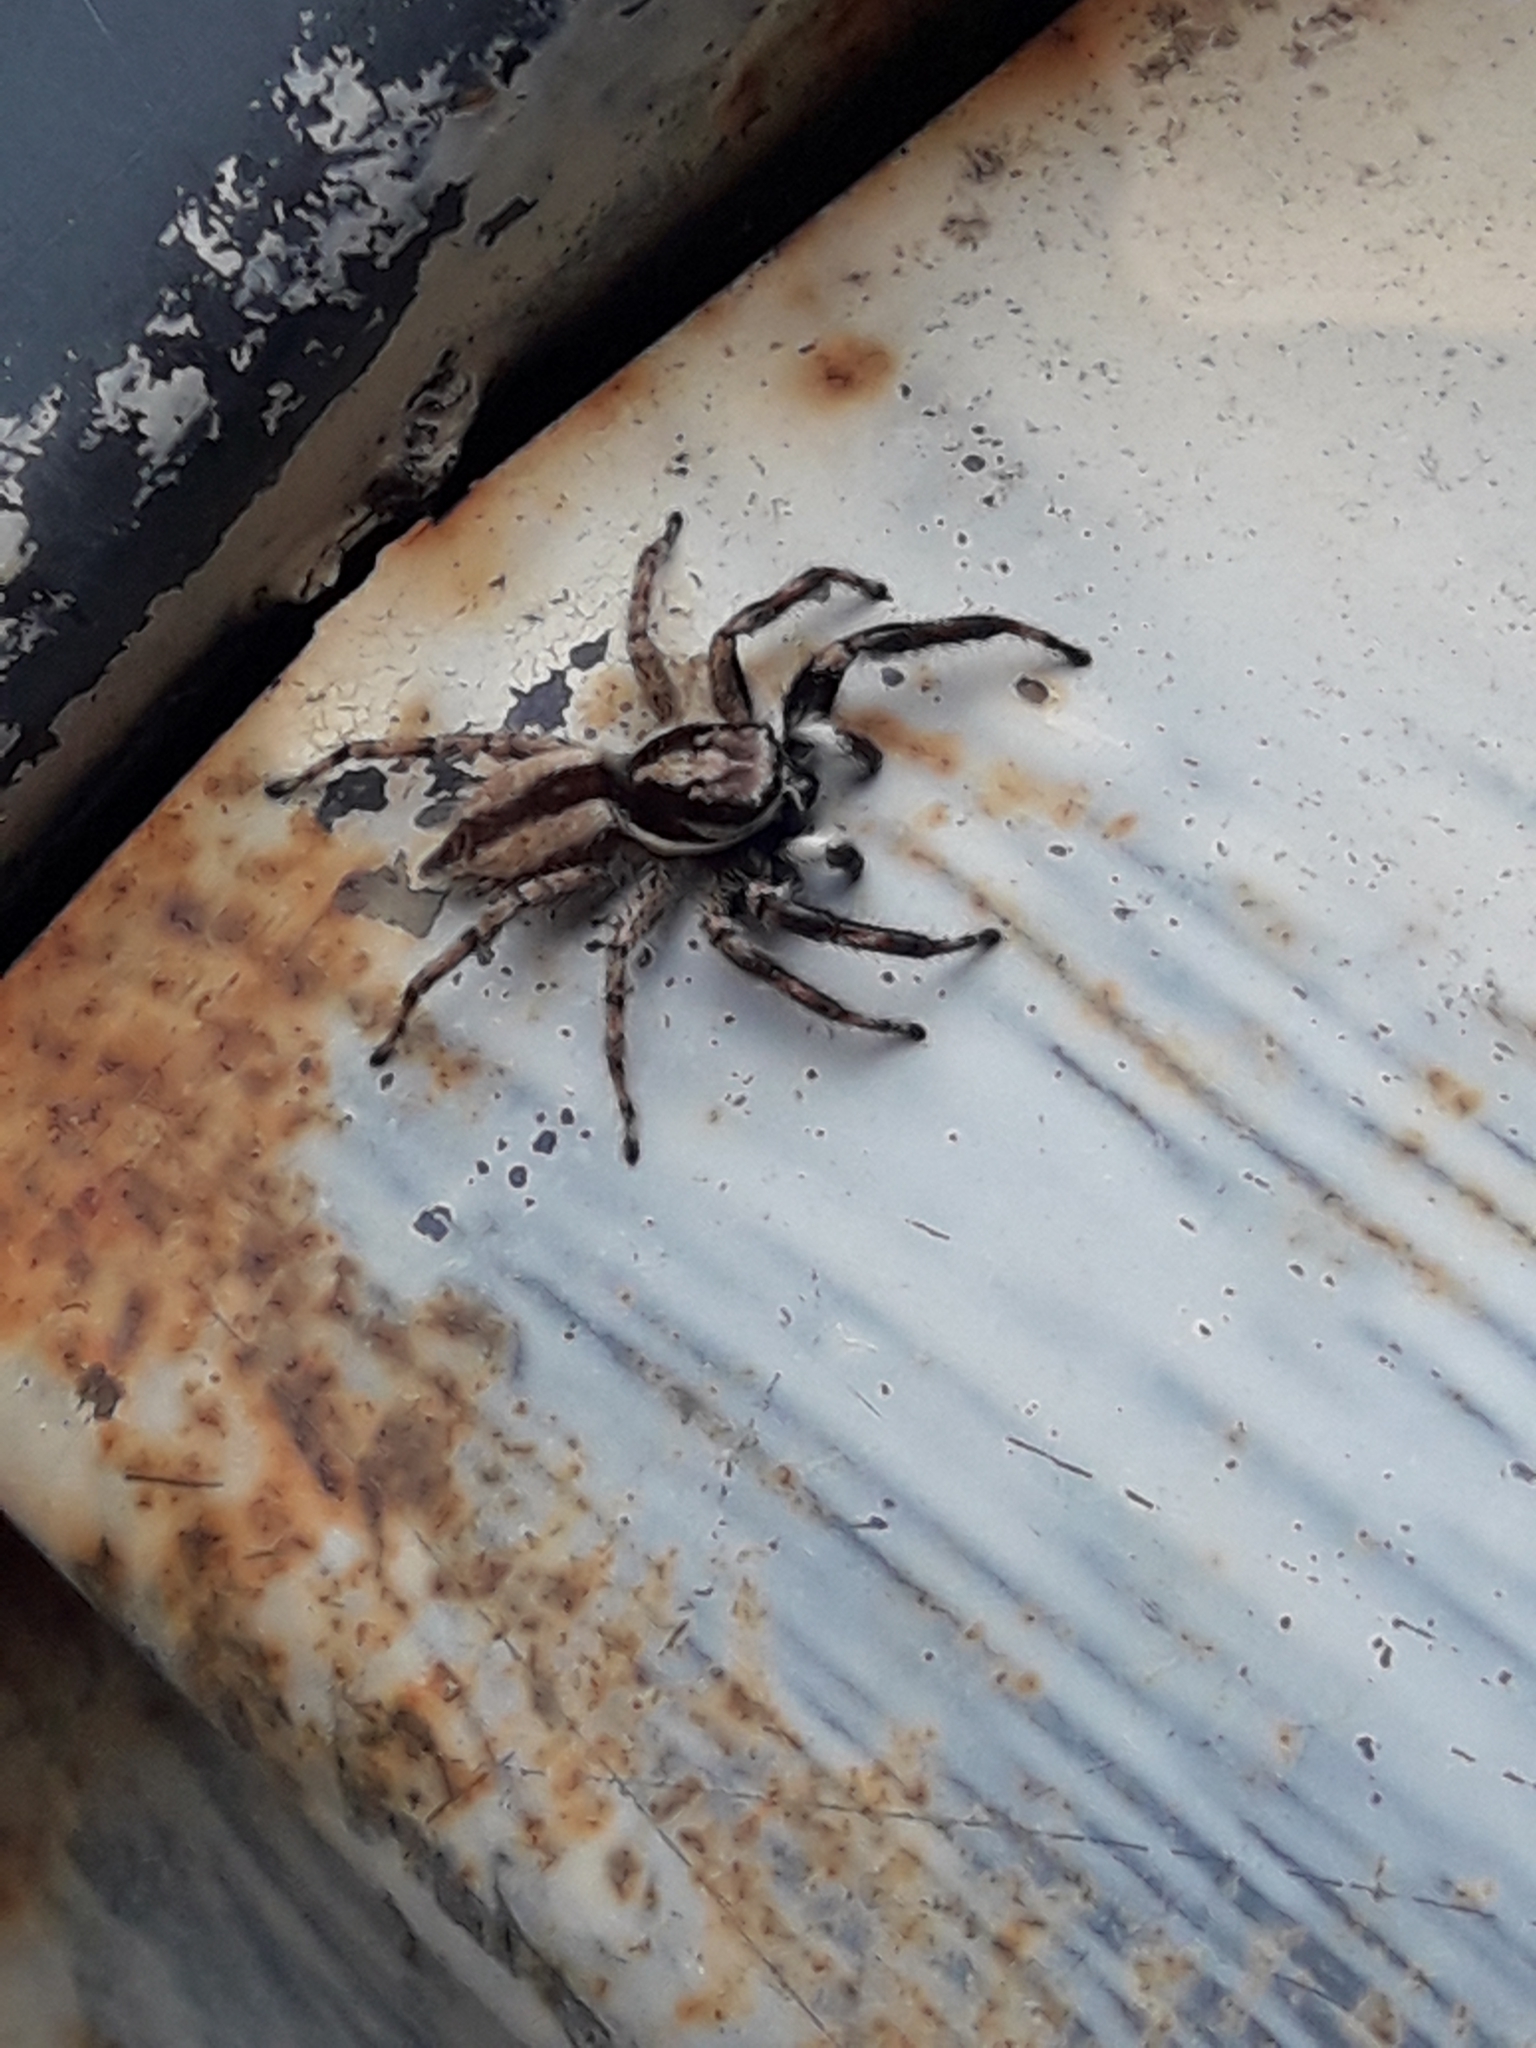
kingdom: Animalia
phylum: Arthropoda
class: Arachnida
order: Araneae
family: Salticidae
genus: Menemerus
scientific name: Menemerus bivittatus
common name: Gray wall jumper
